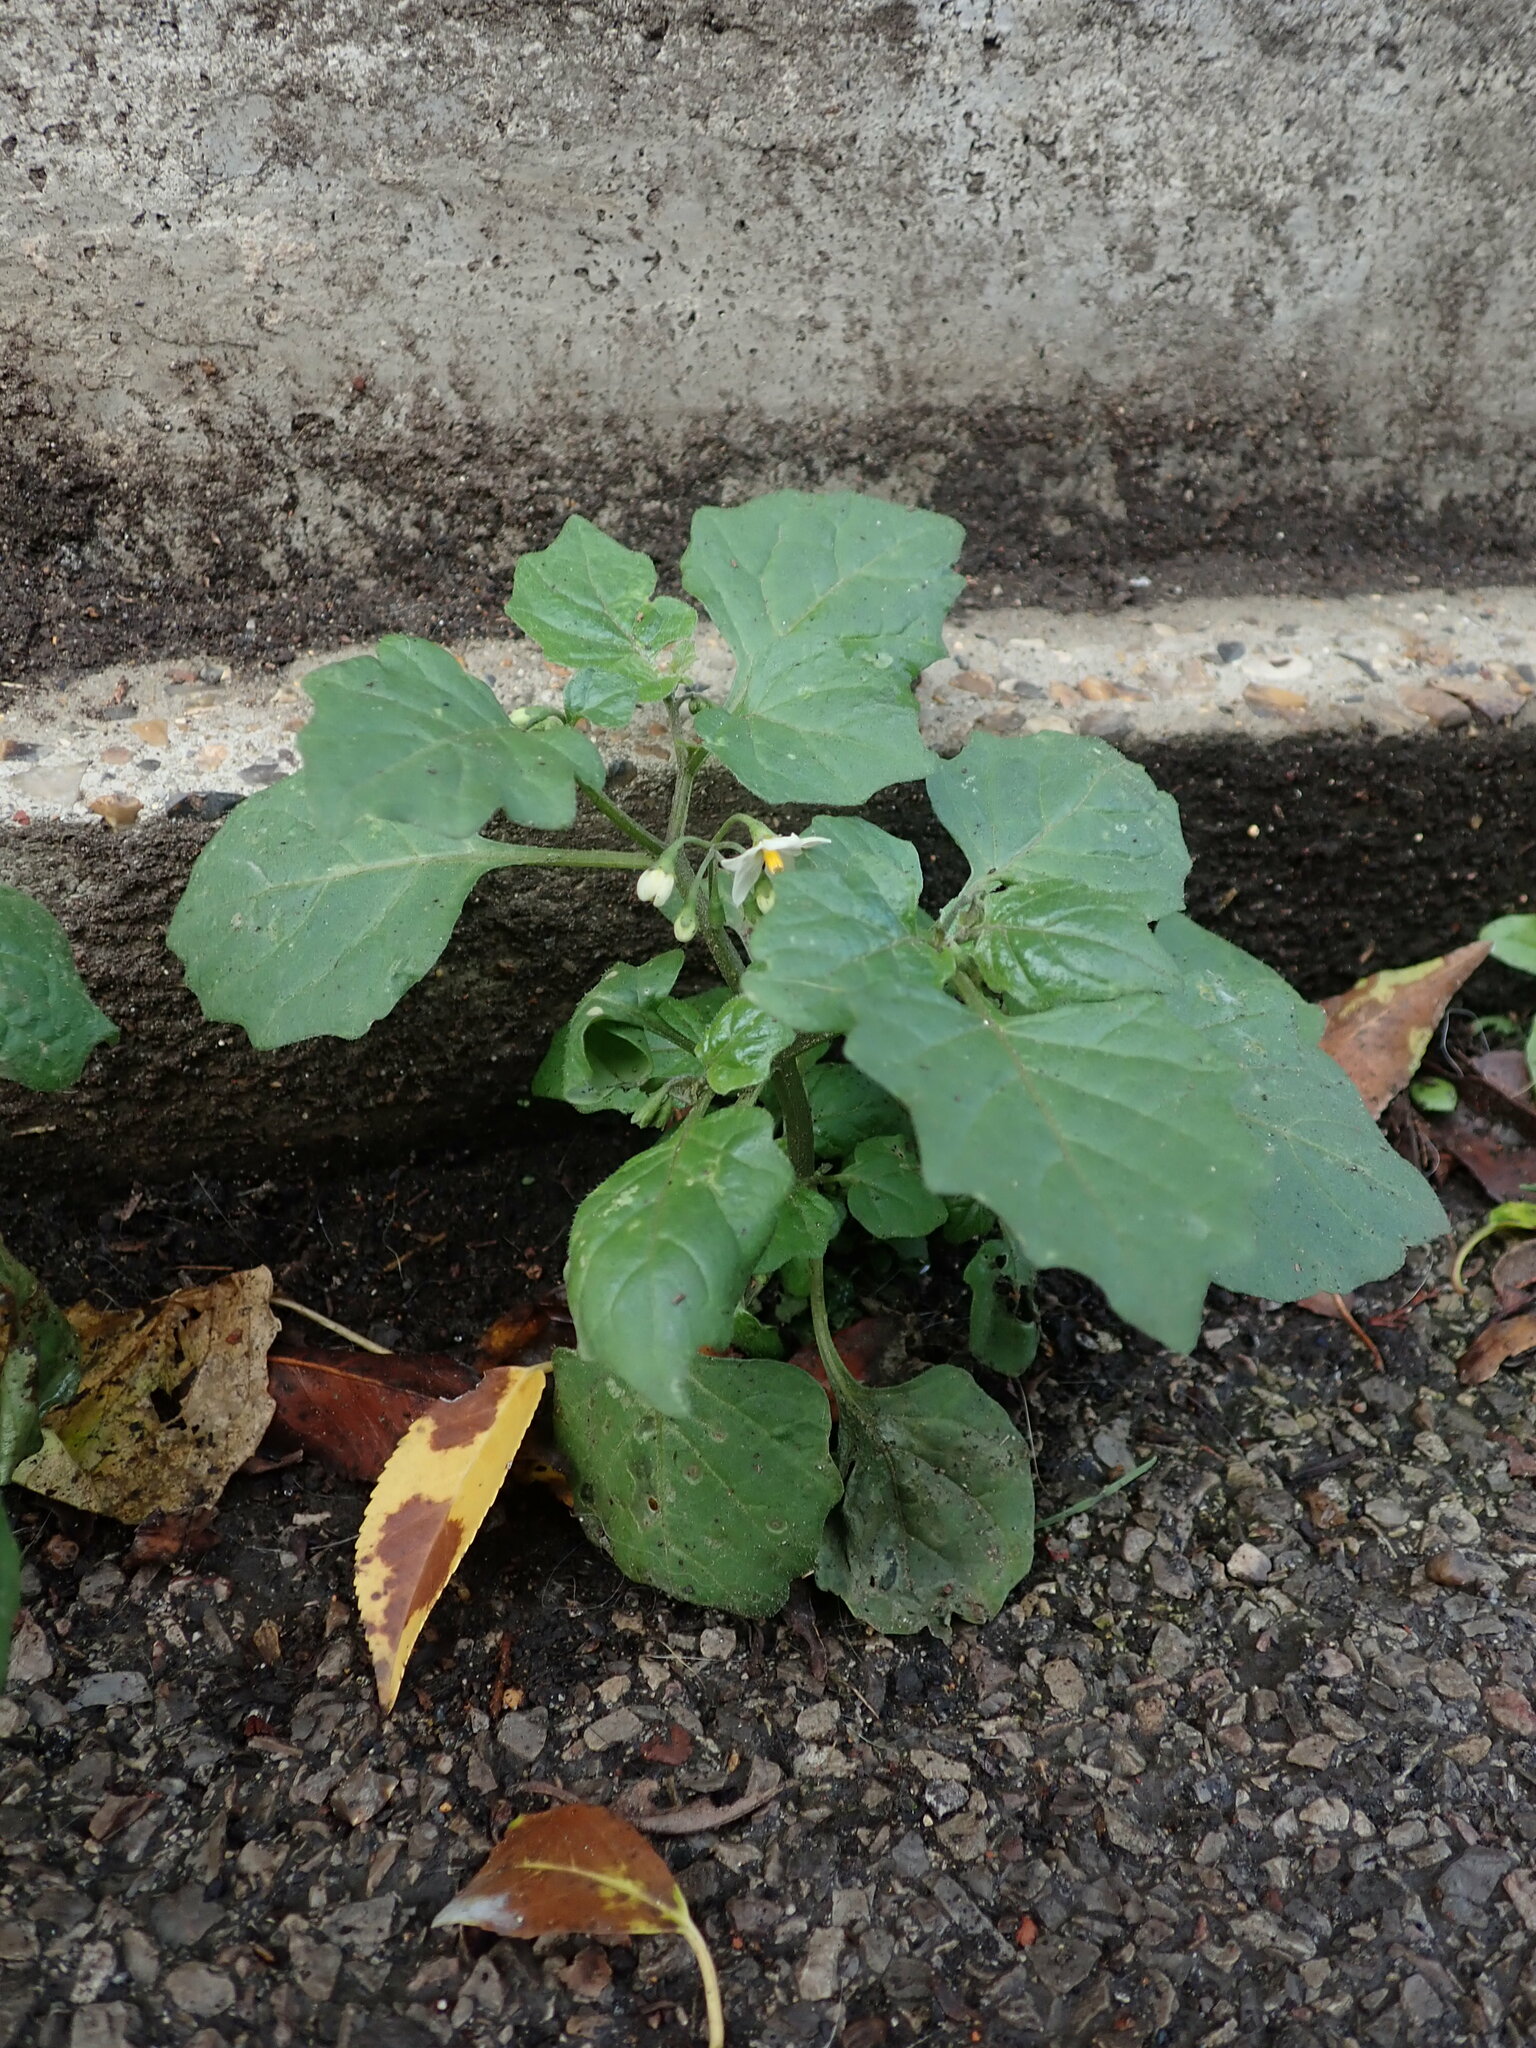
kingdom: Plantae
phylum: Tracheophyta
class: Magnoliopsida
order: Solanales
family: Solanaceae
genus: Solanum
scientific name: Solanum nigrum
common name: Black nightshade
